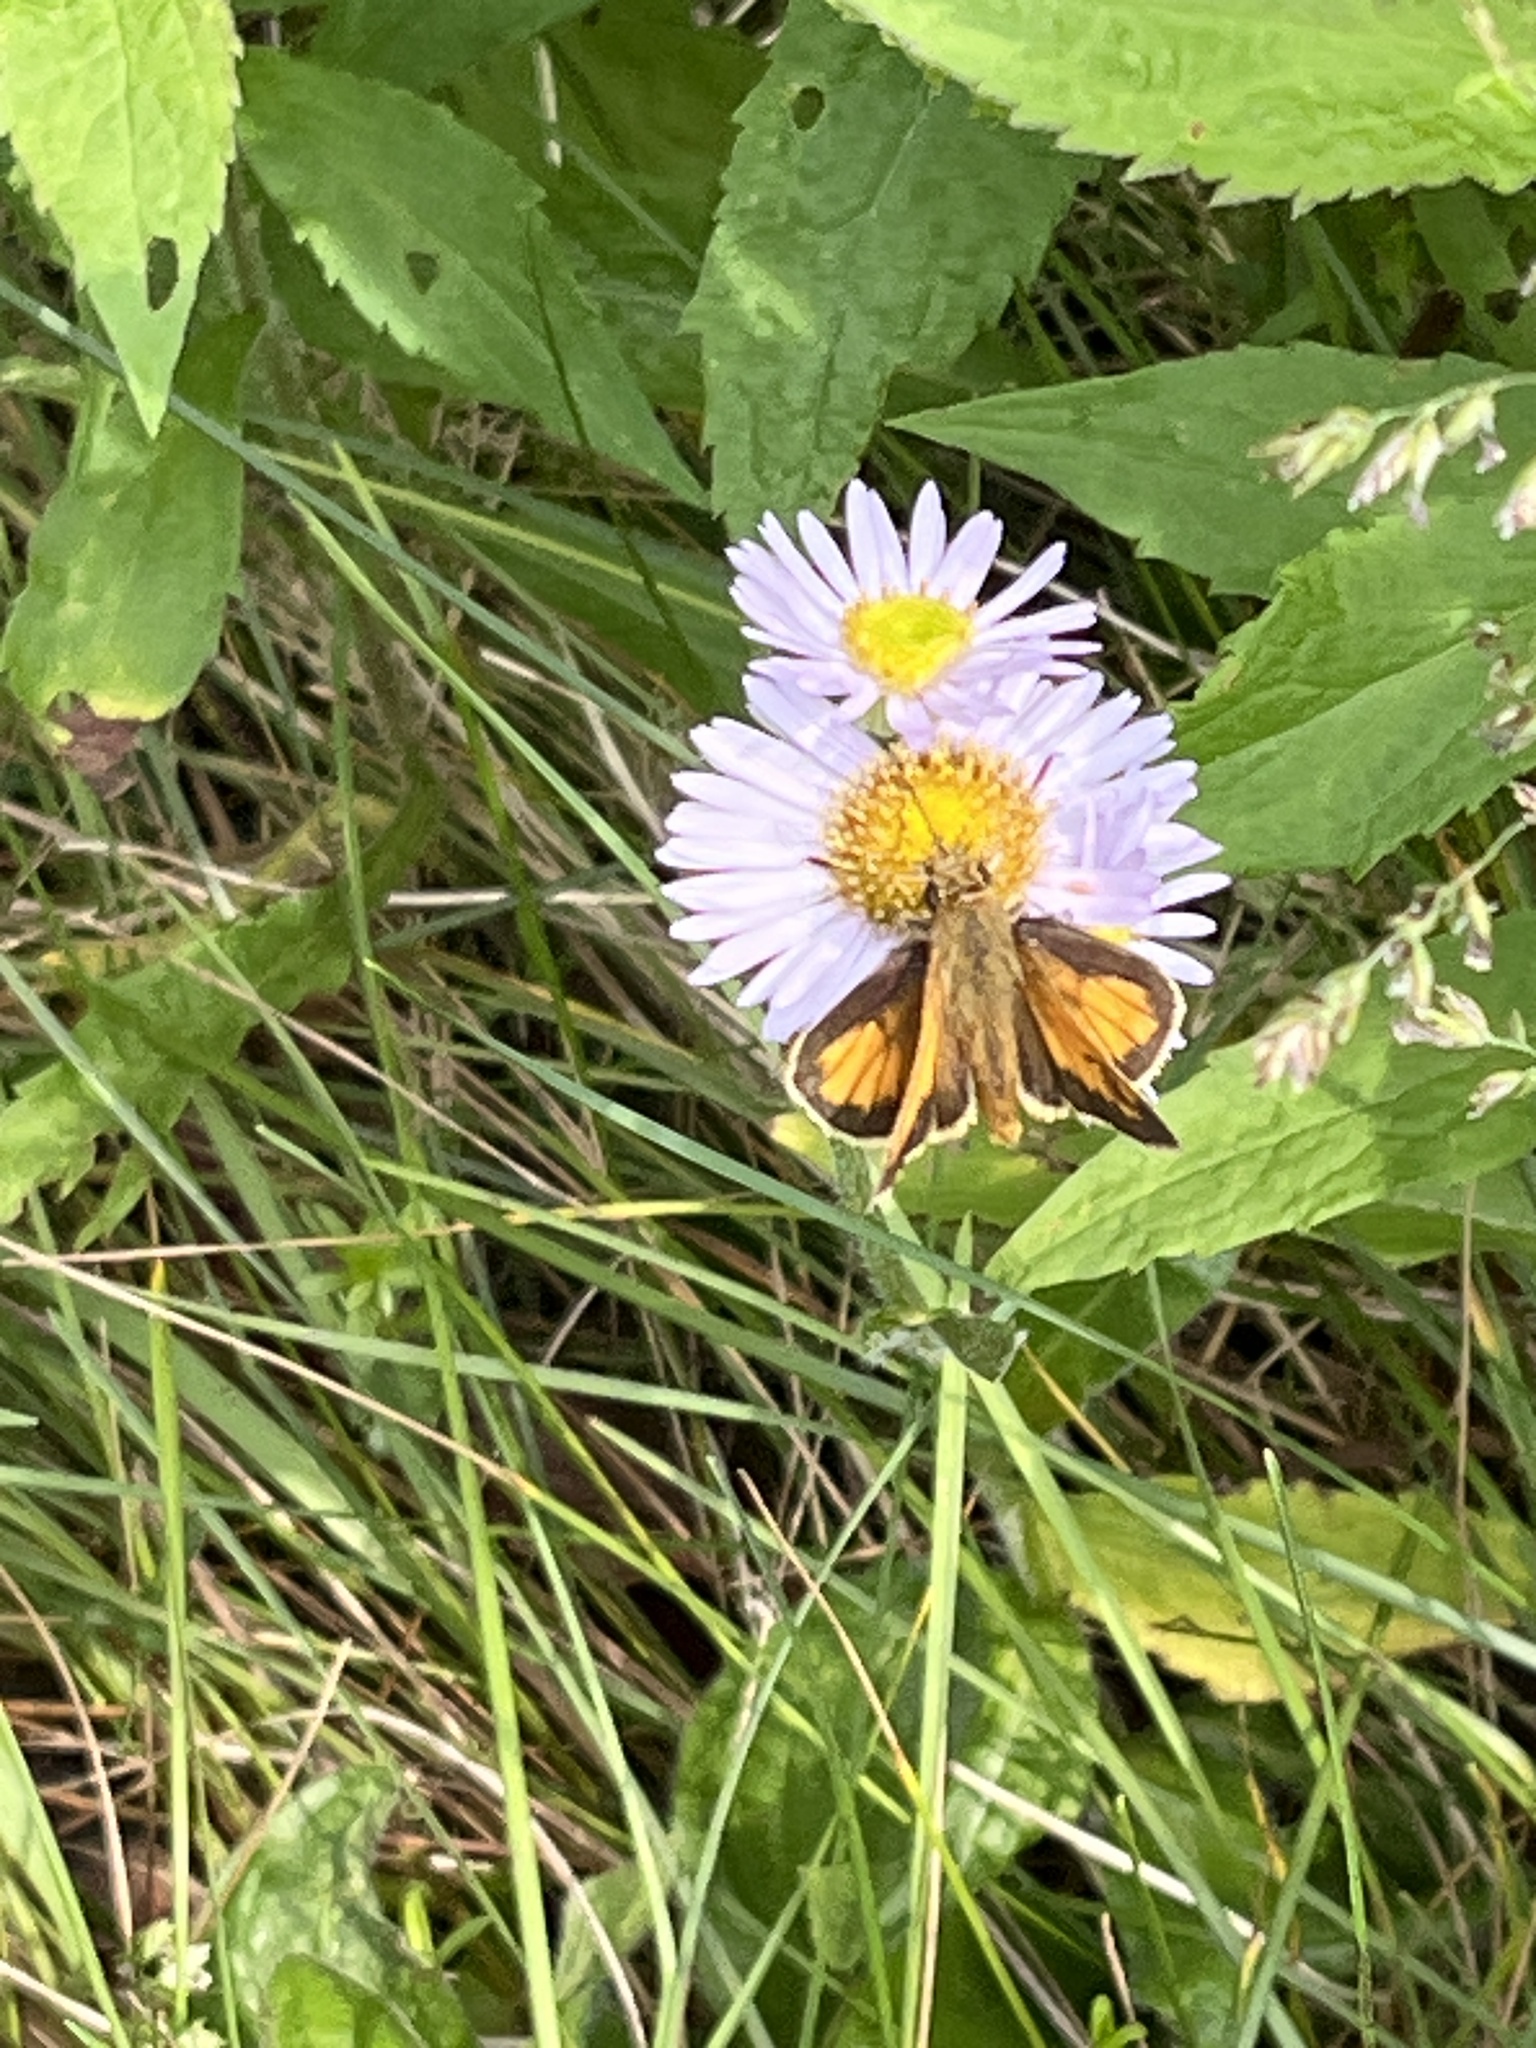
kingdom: Animalia
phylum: Arthropoda
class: Insecta
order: Lepidoptera
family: Hesperiidae
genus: Lon
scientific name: Lon hobomok
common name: Hobomok skipper
